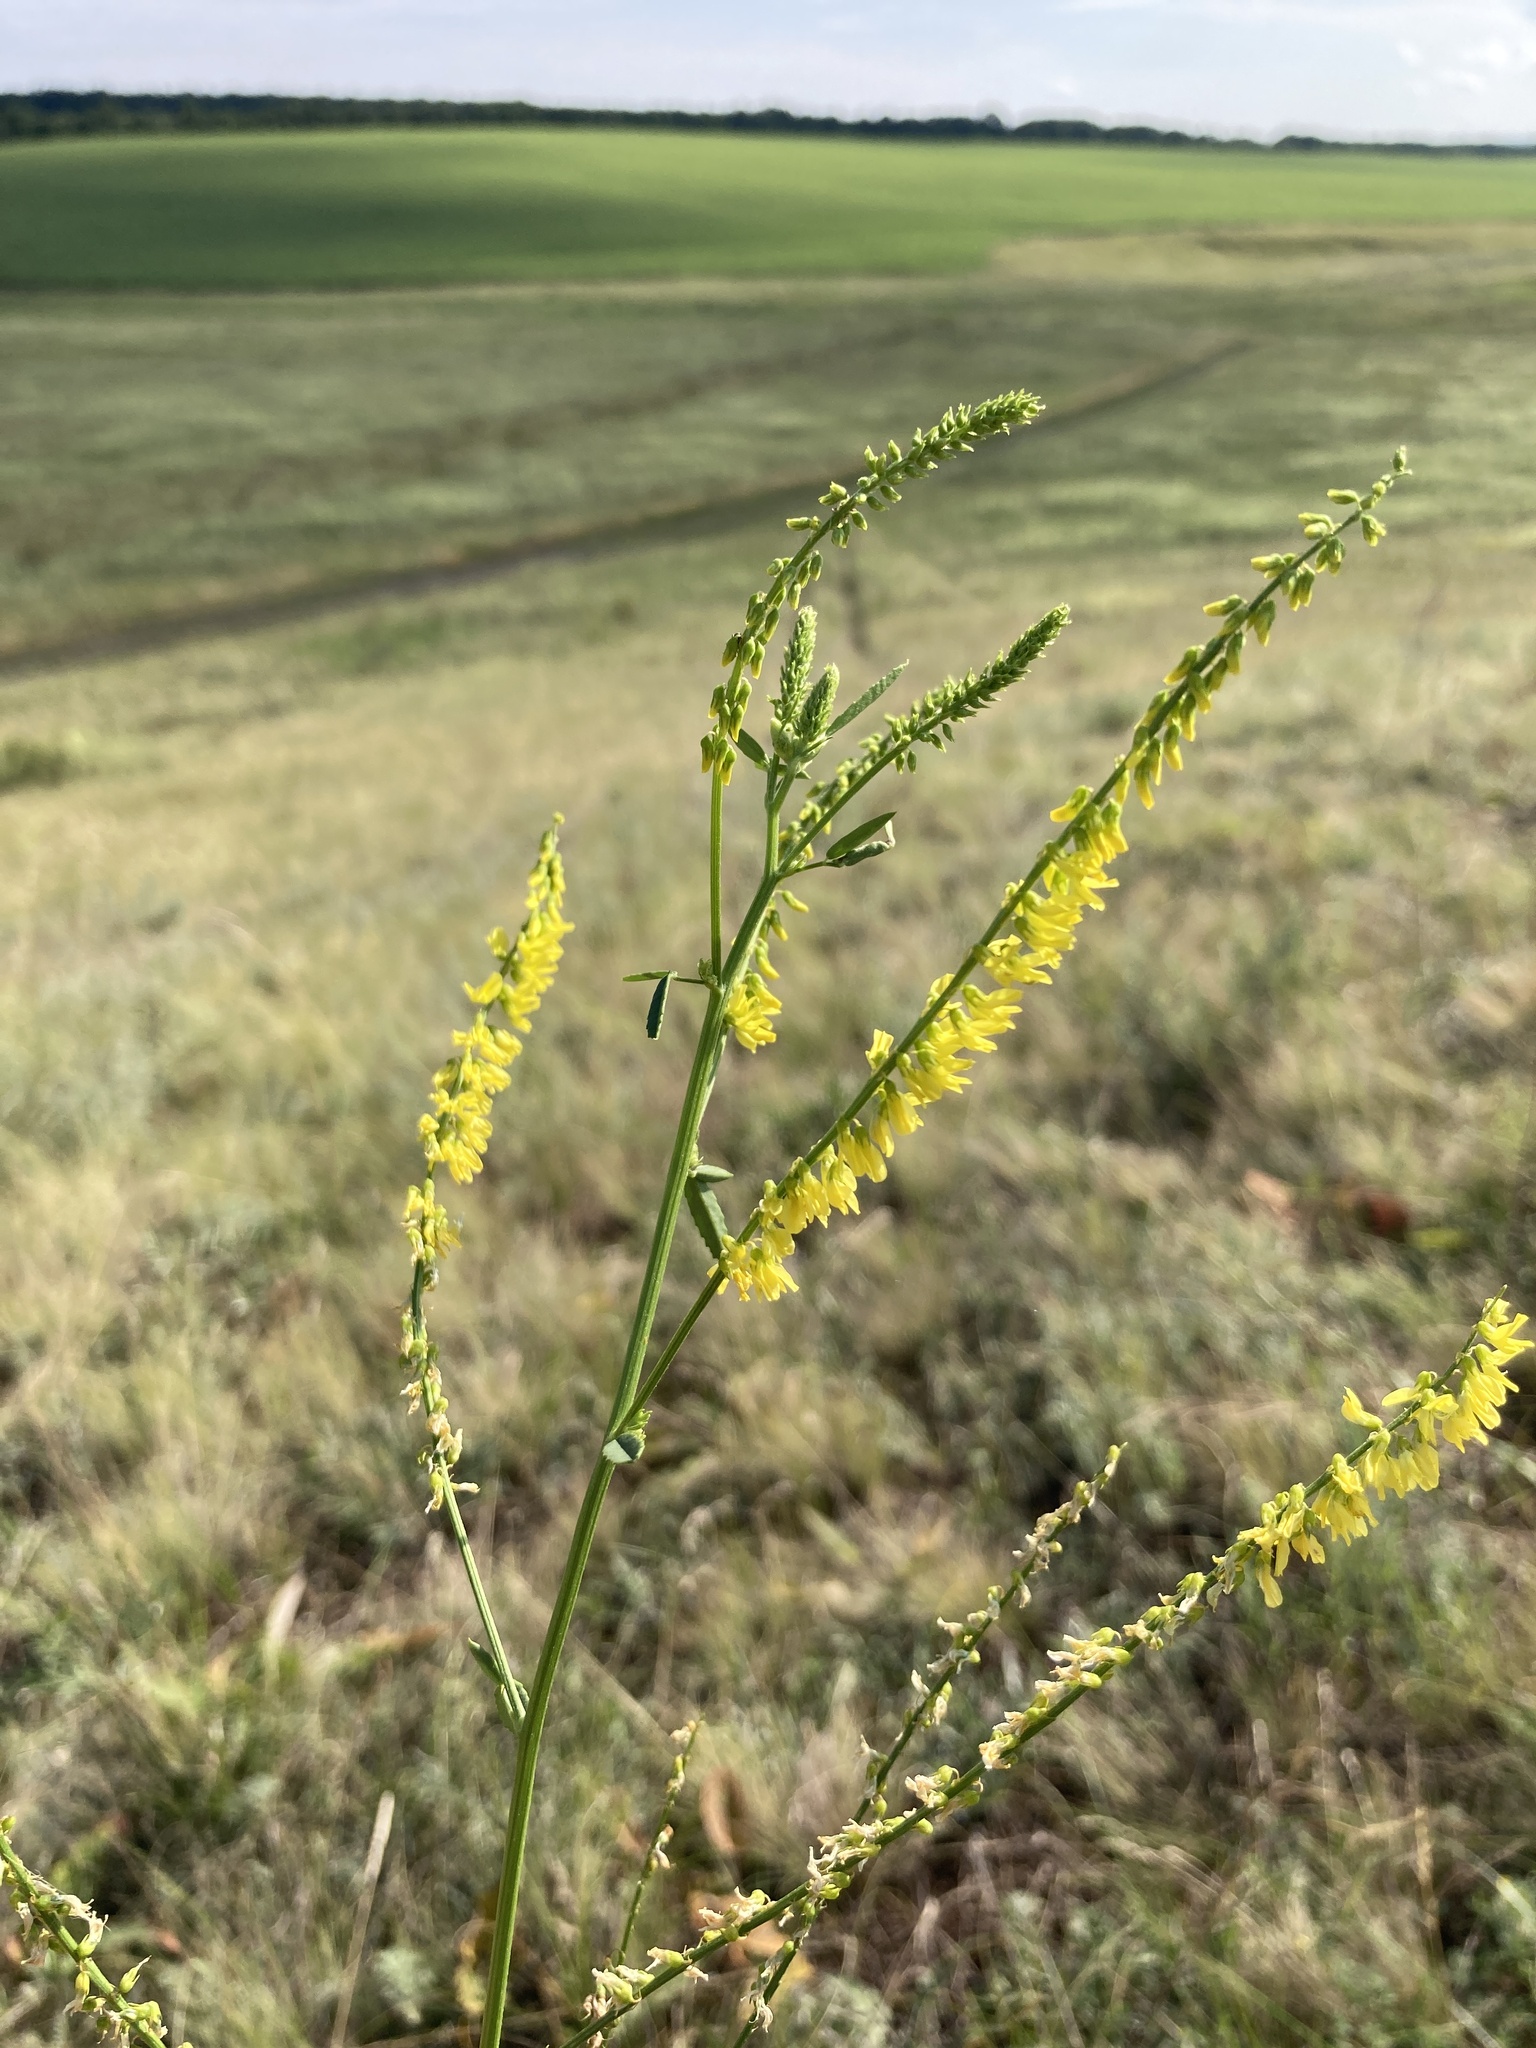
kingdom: Plantae
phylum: Tracheophyta
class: Magnoliopsida
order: Fabales
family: Fabaceae
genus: Melilotus
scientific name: Melilotus officinalis
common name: Sweetclover
